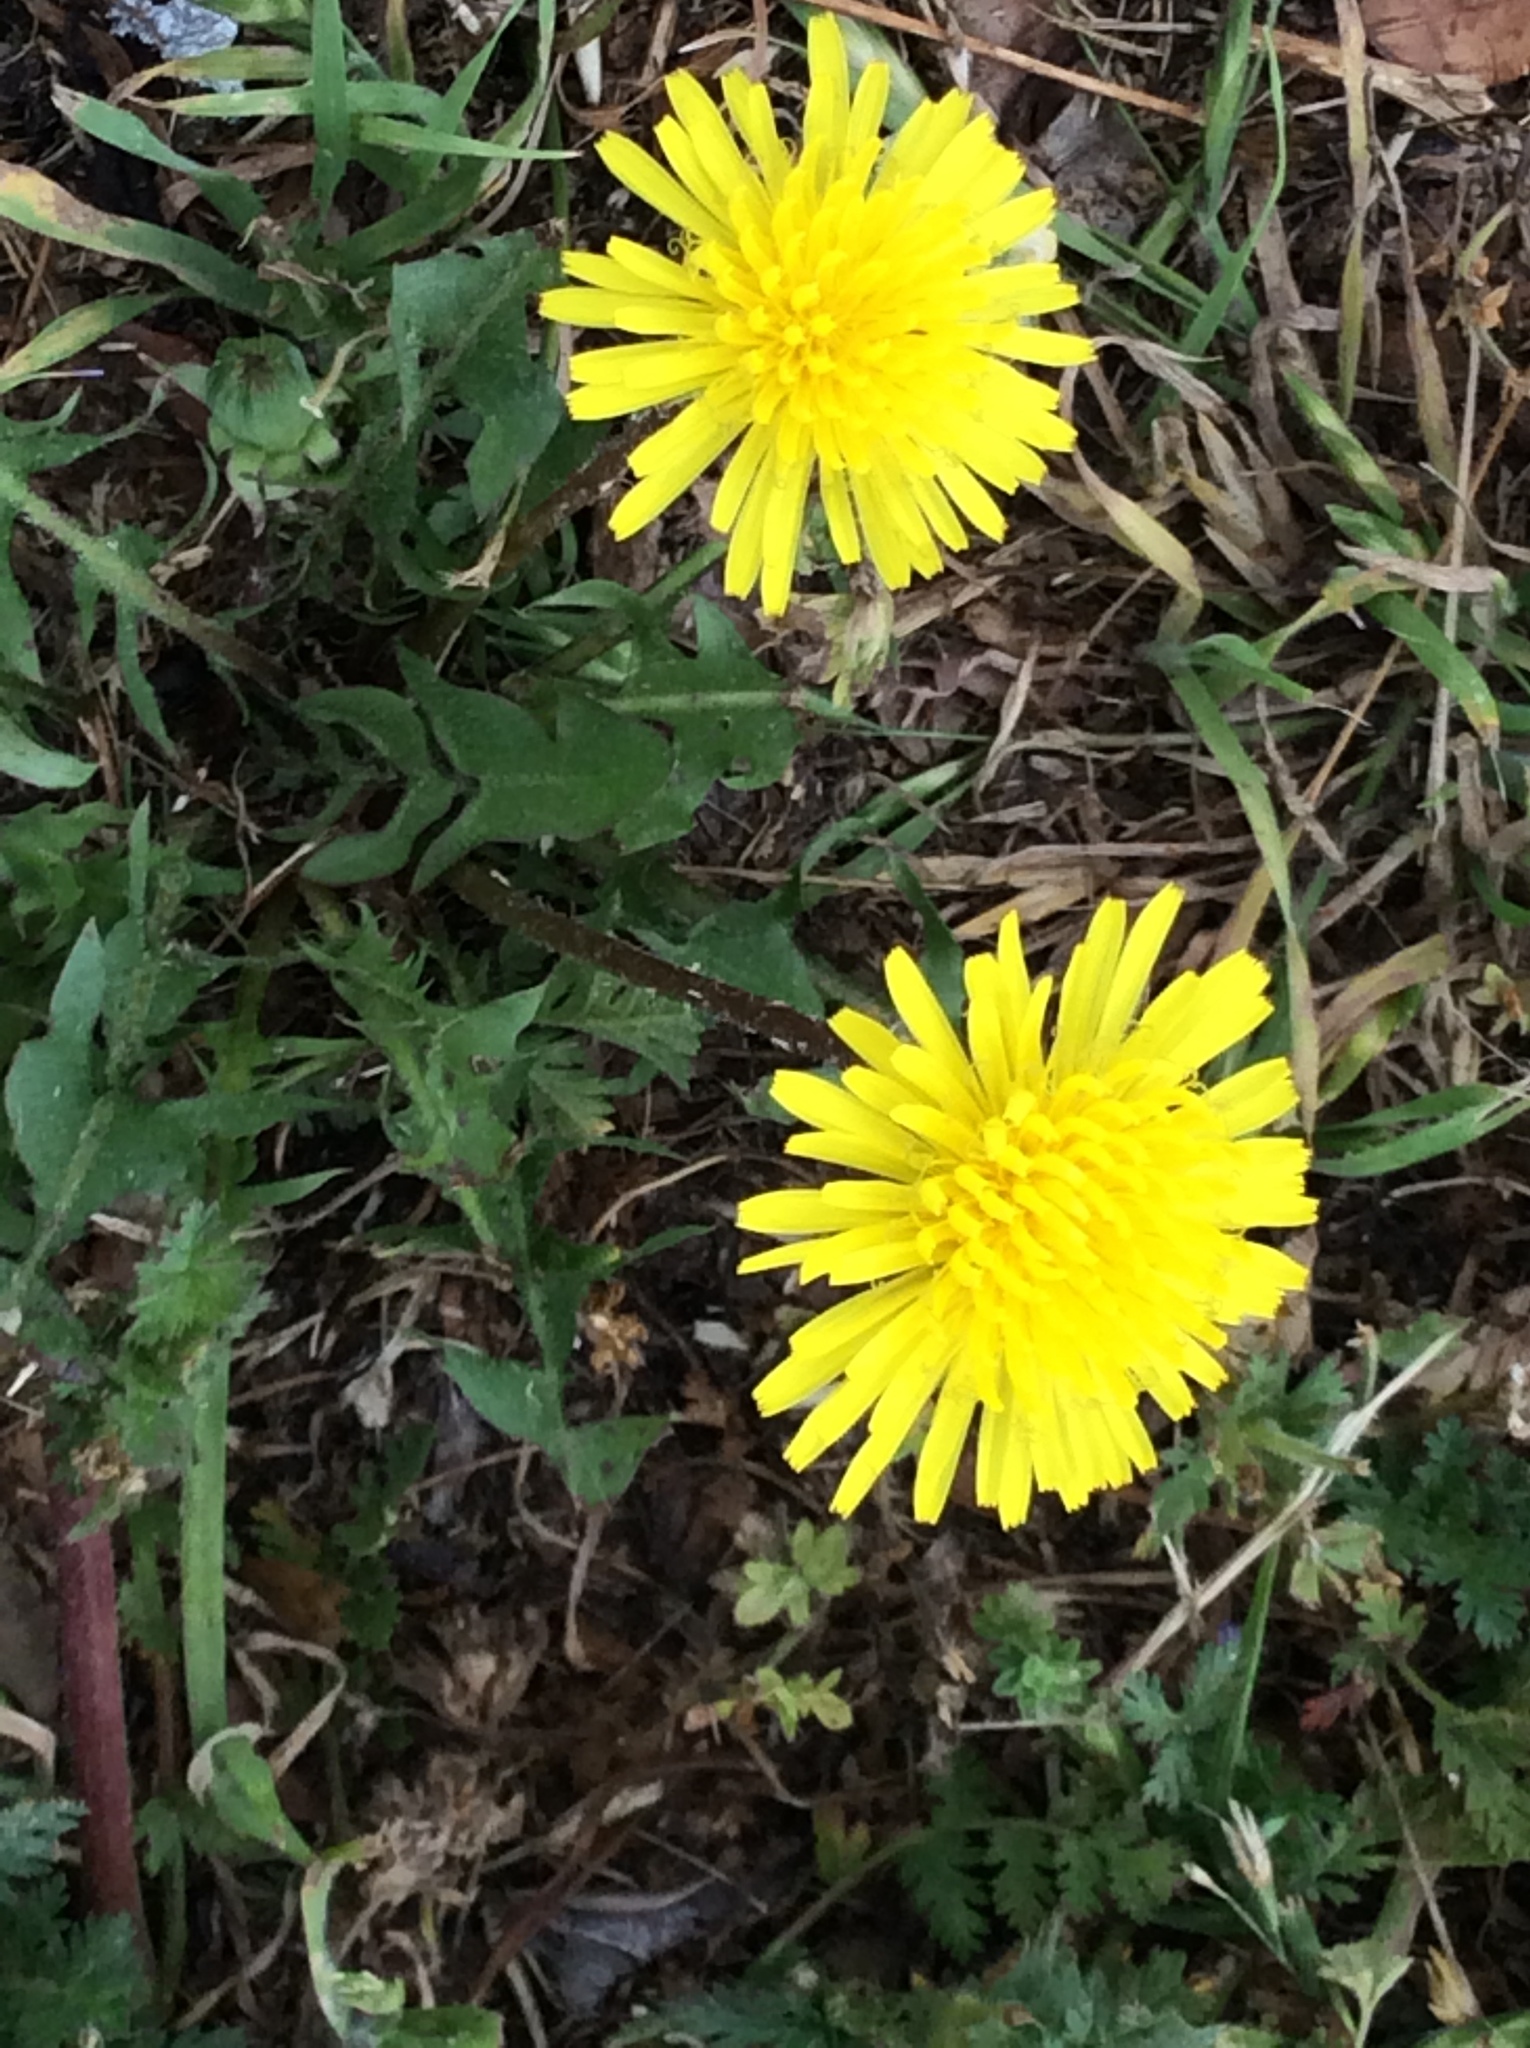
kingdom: Plantae
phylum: Tracheophyta
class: Magnoliopsida
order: Asterales
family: Asteraceae
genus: Taraxacum
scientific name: Taraxacum officinale
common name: Common dandelion
